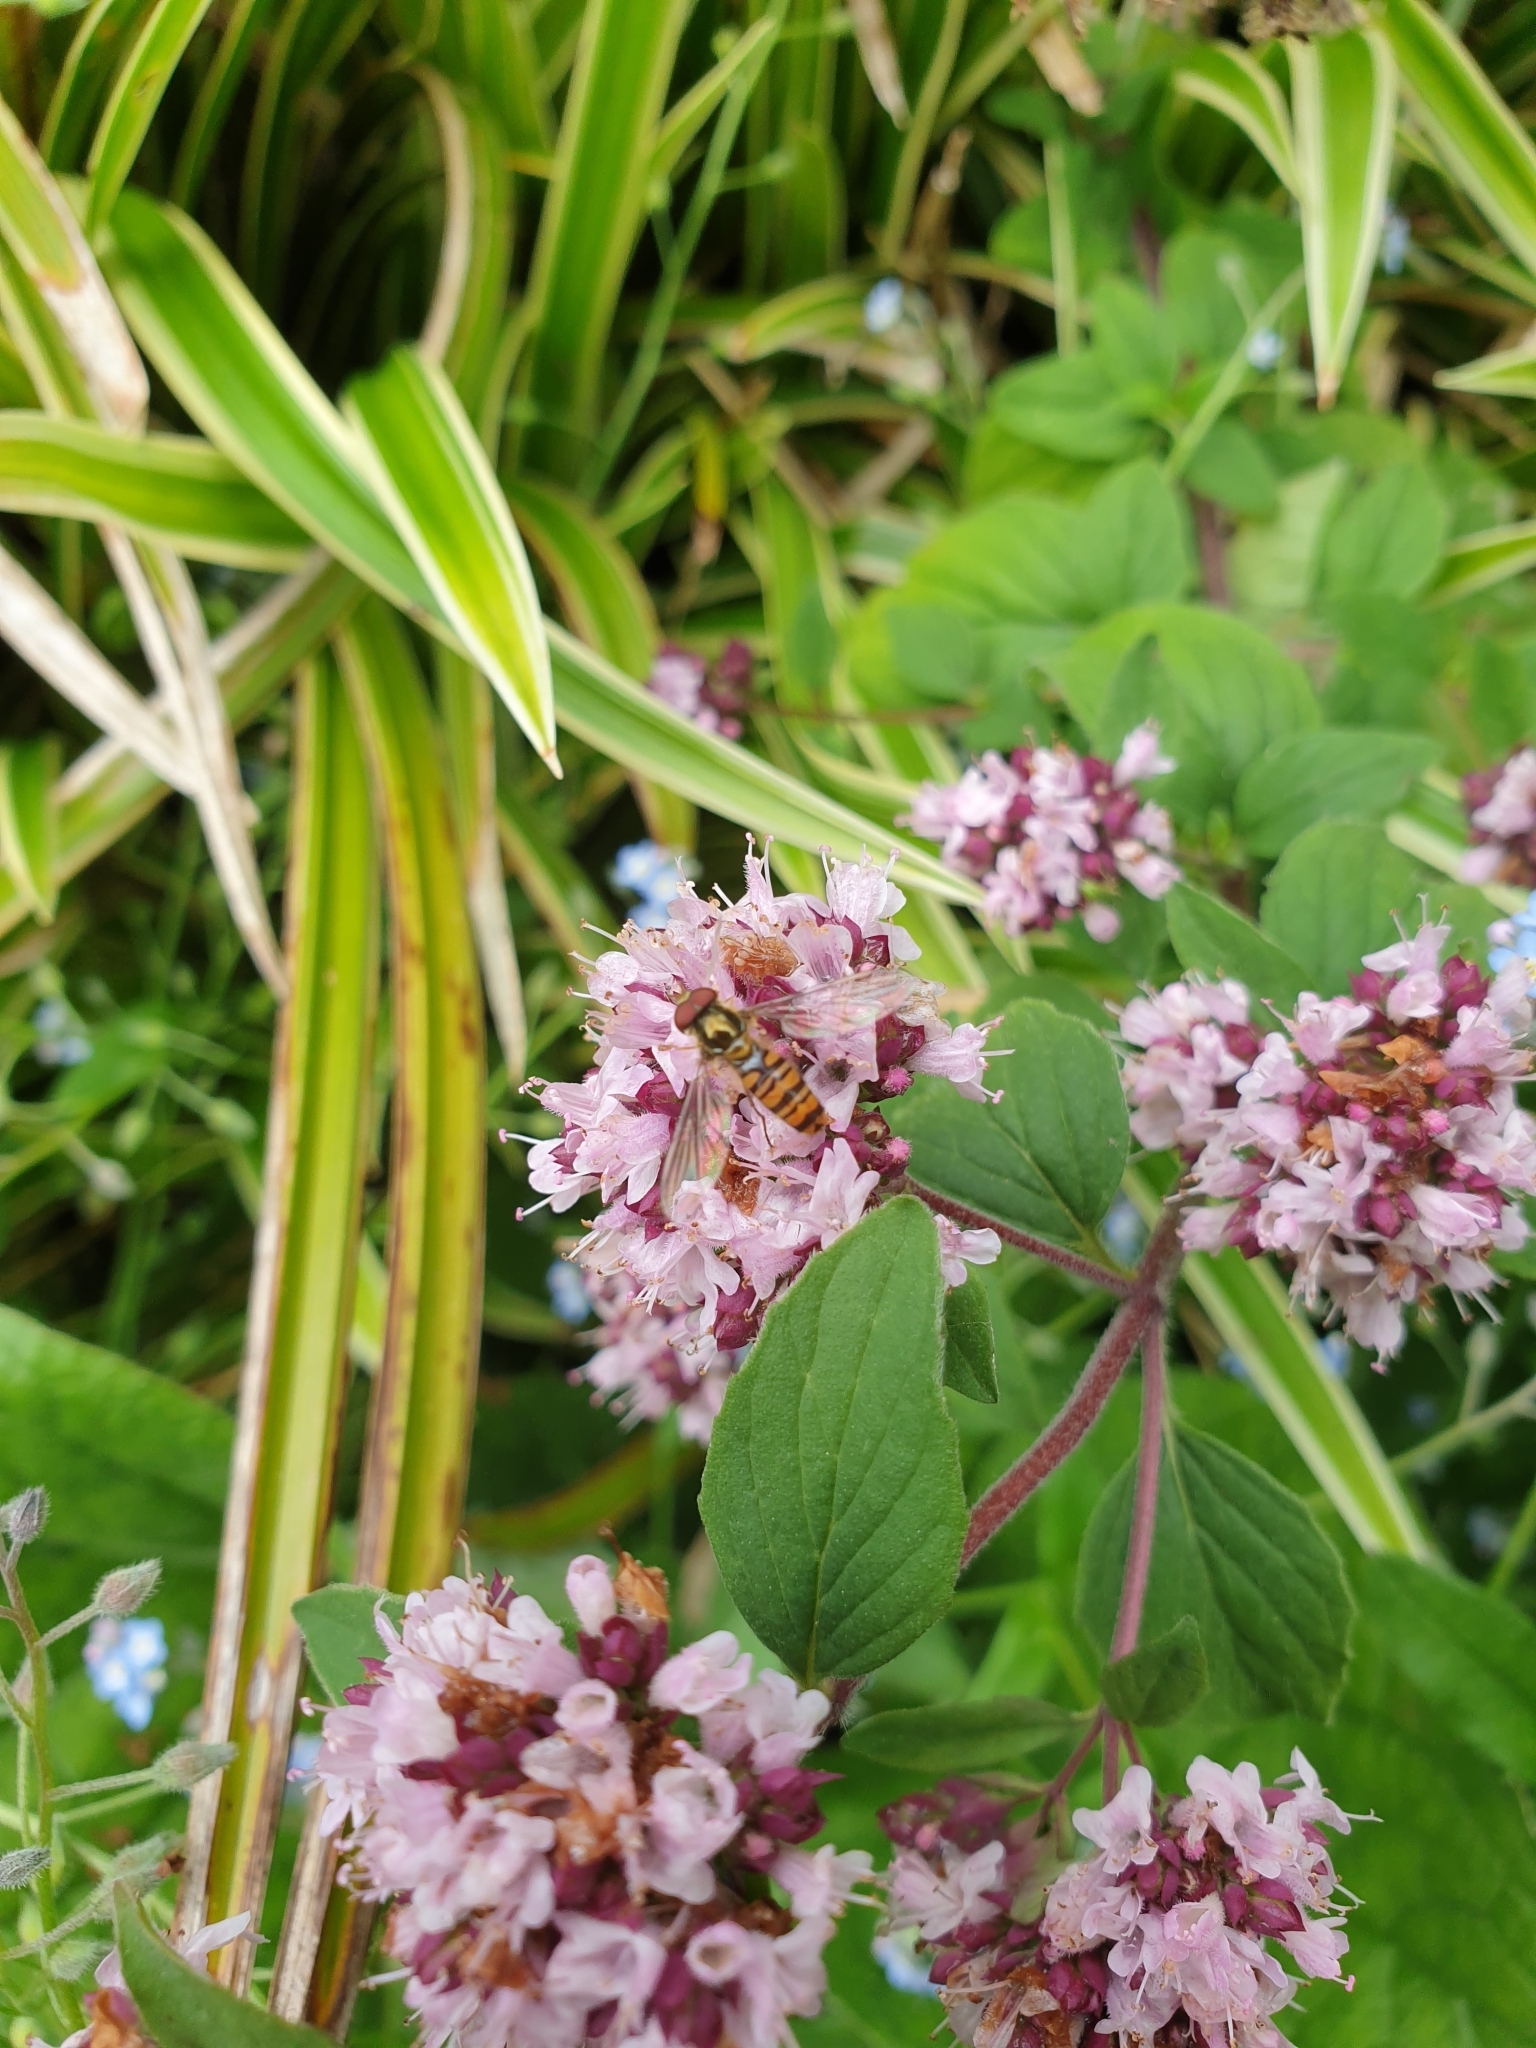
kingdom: Animalia
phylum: Arthropoda
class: Insecta
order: Diptera
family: Syrphidae
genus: Episyrphus
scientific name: Episyrphus balteatus
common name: Marmalade hoverfly
